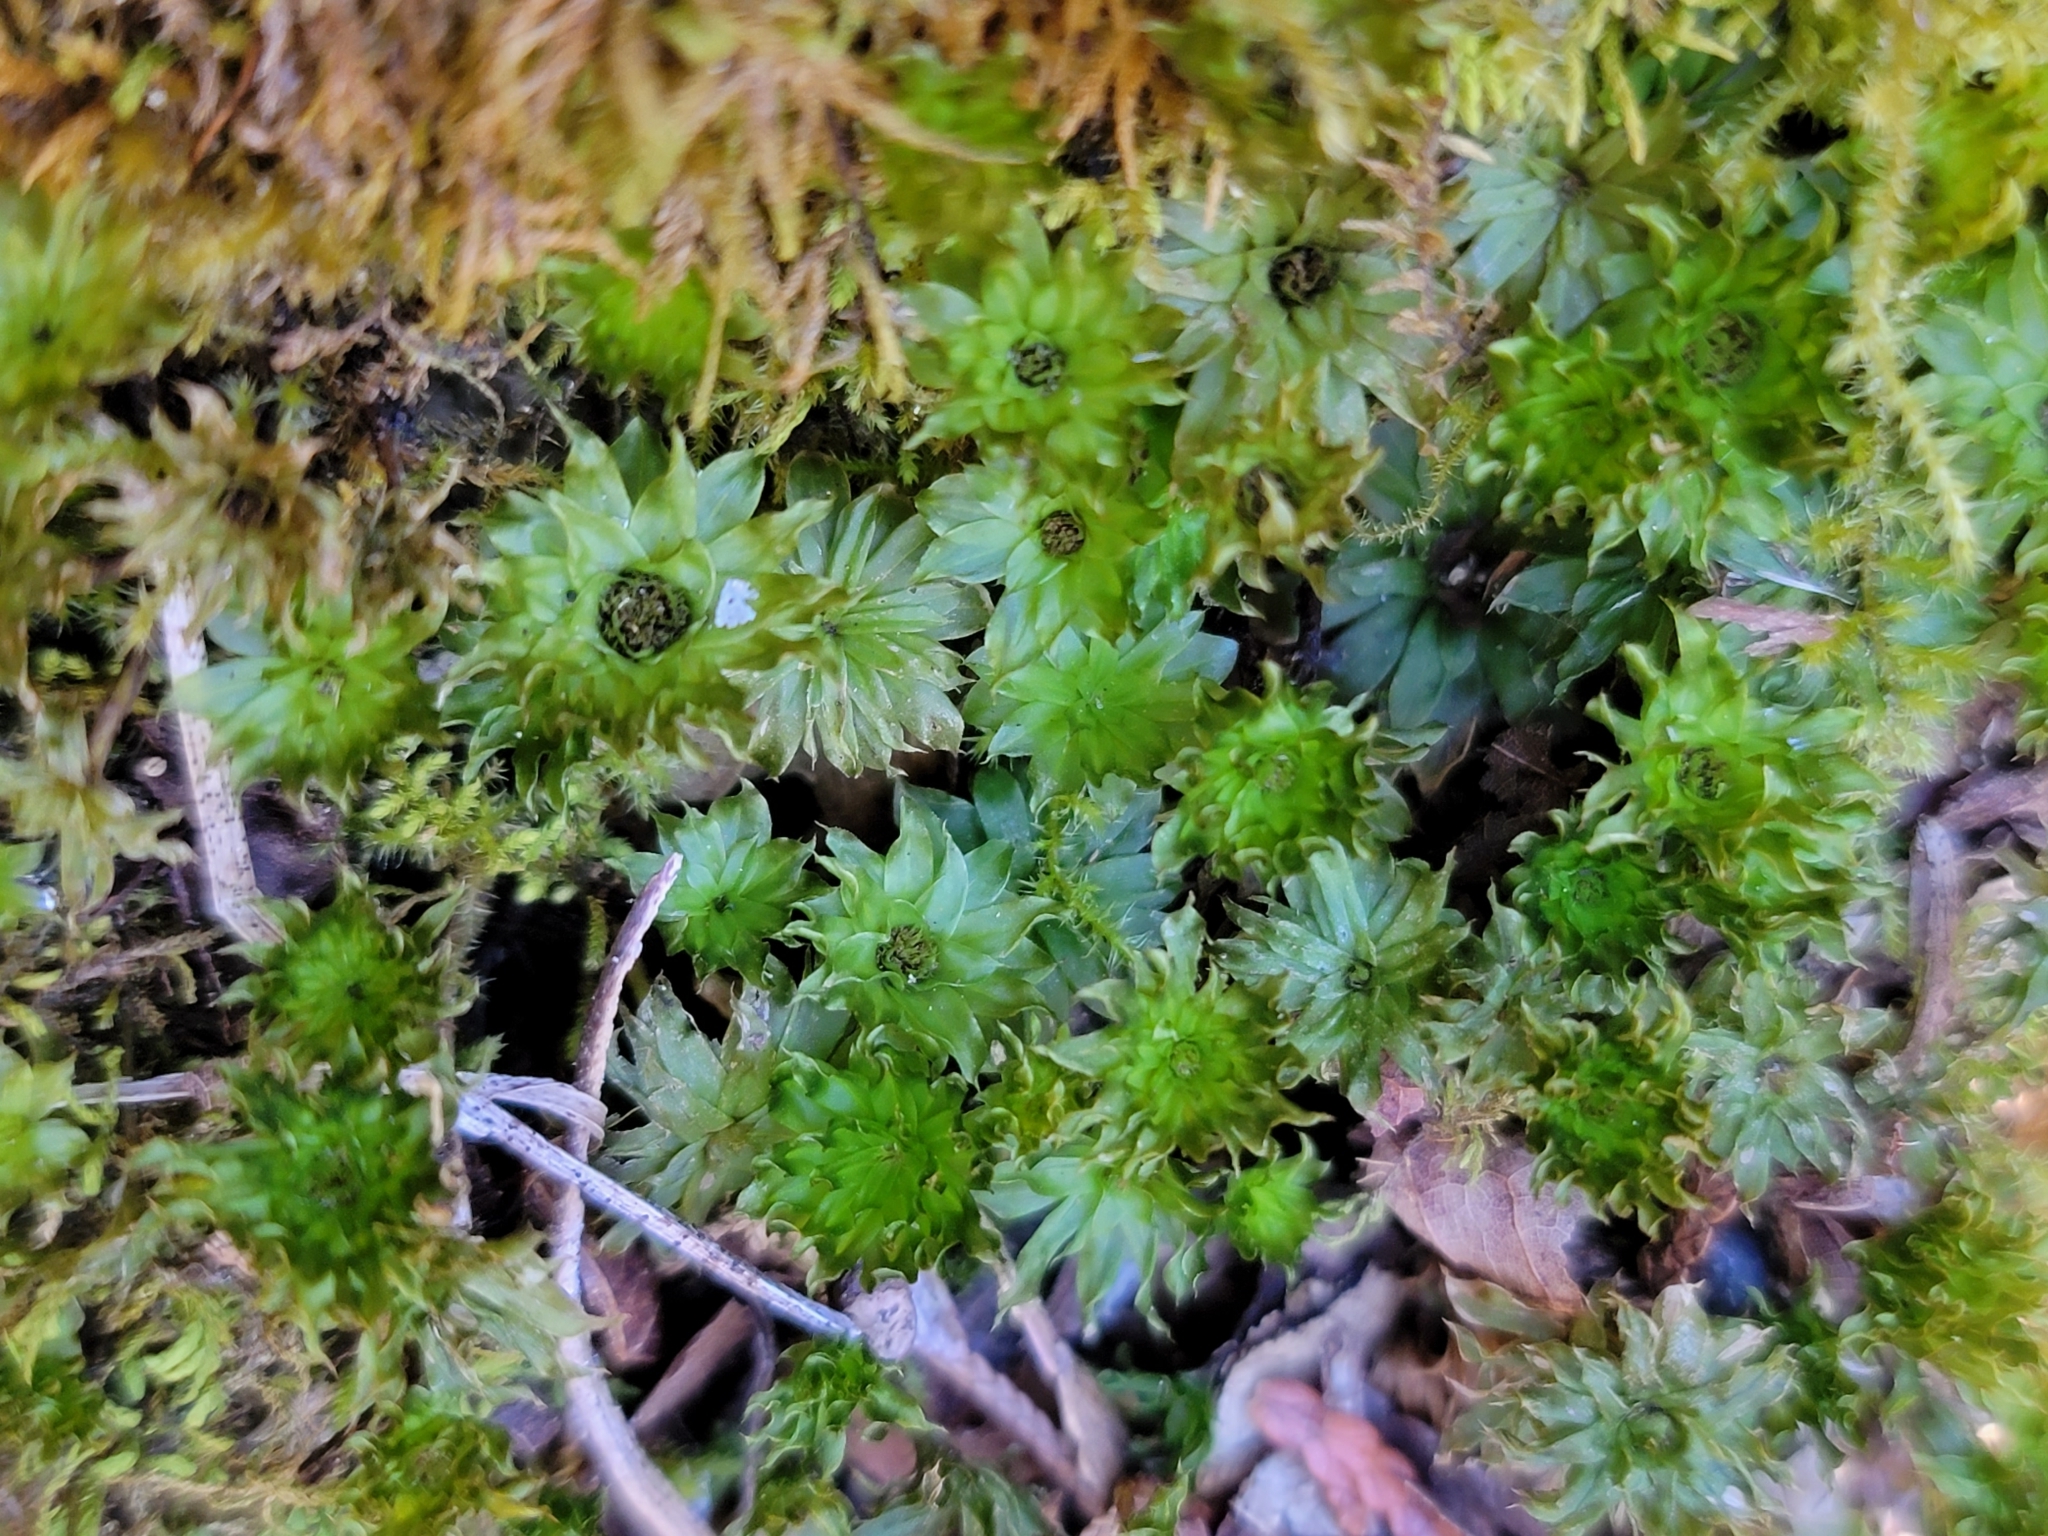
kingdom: Plantae
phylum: Bryophyta
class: Bryopsida
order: Bryales
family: Bryaceae
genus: Rhodobryum
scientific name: Rhodobryum ontariense
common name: Ontario rhodobryum moss
